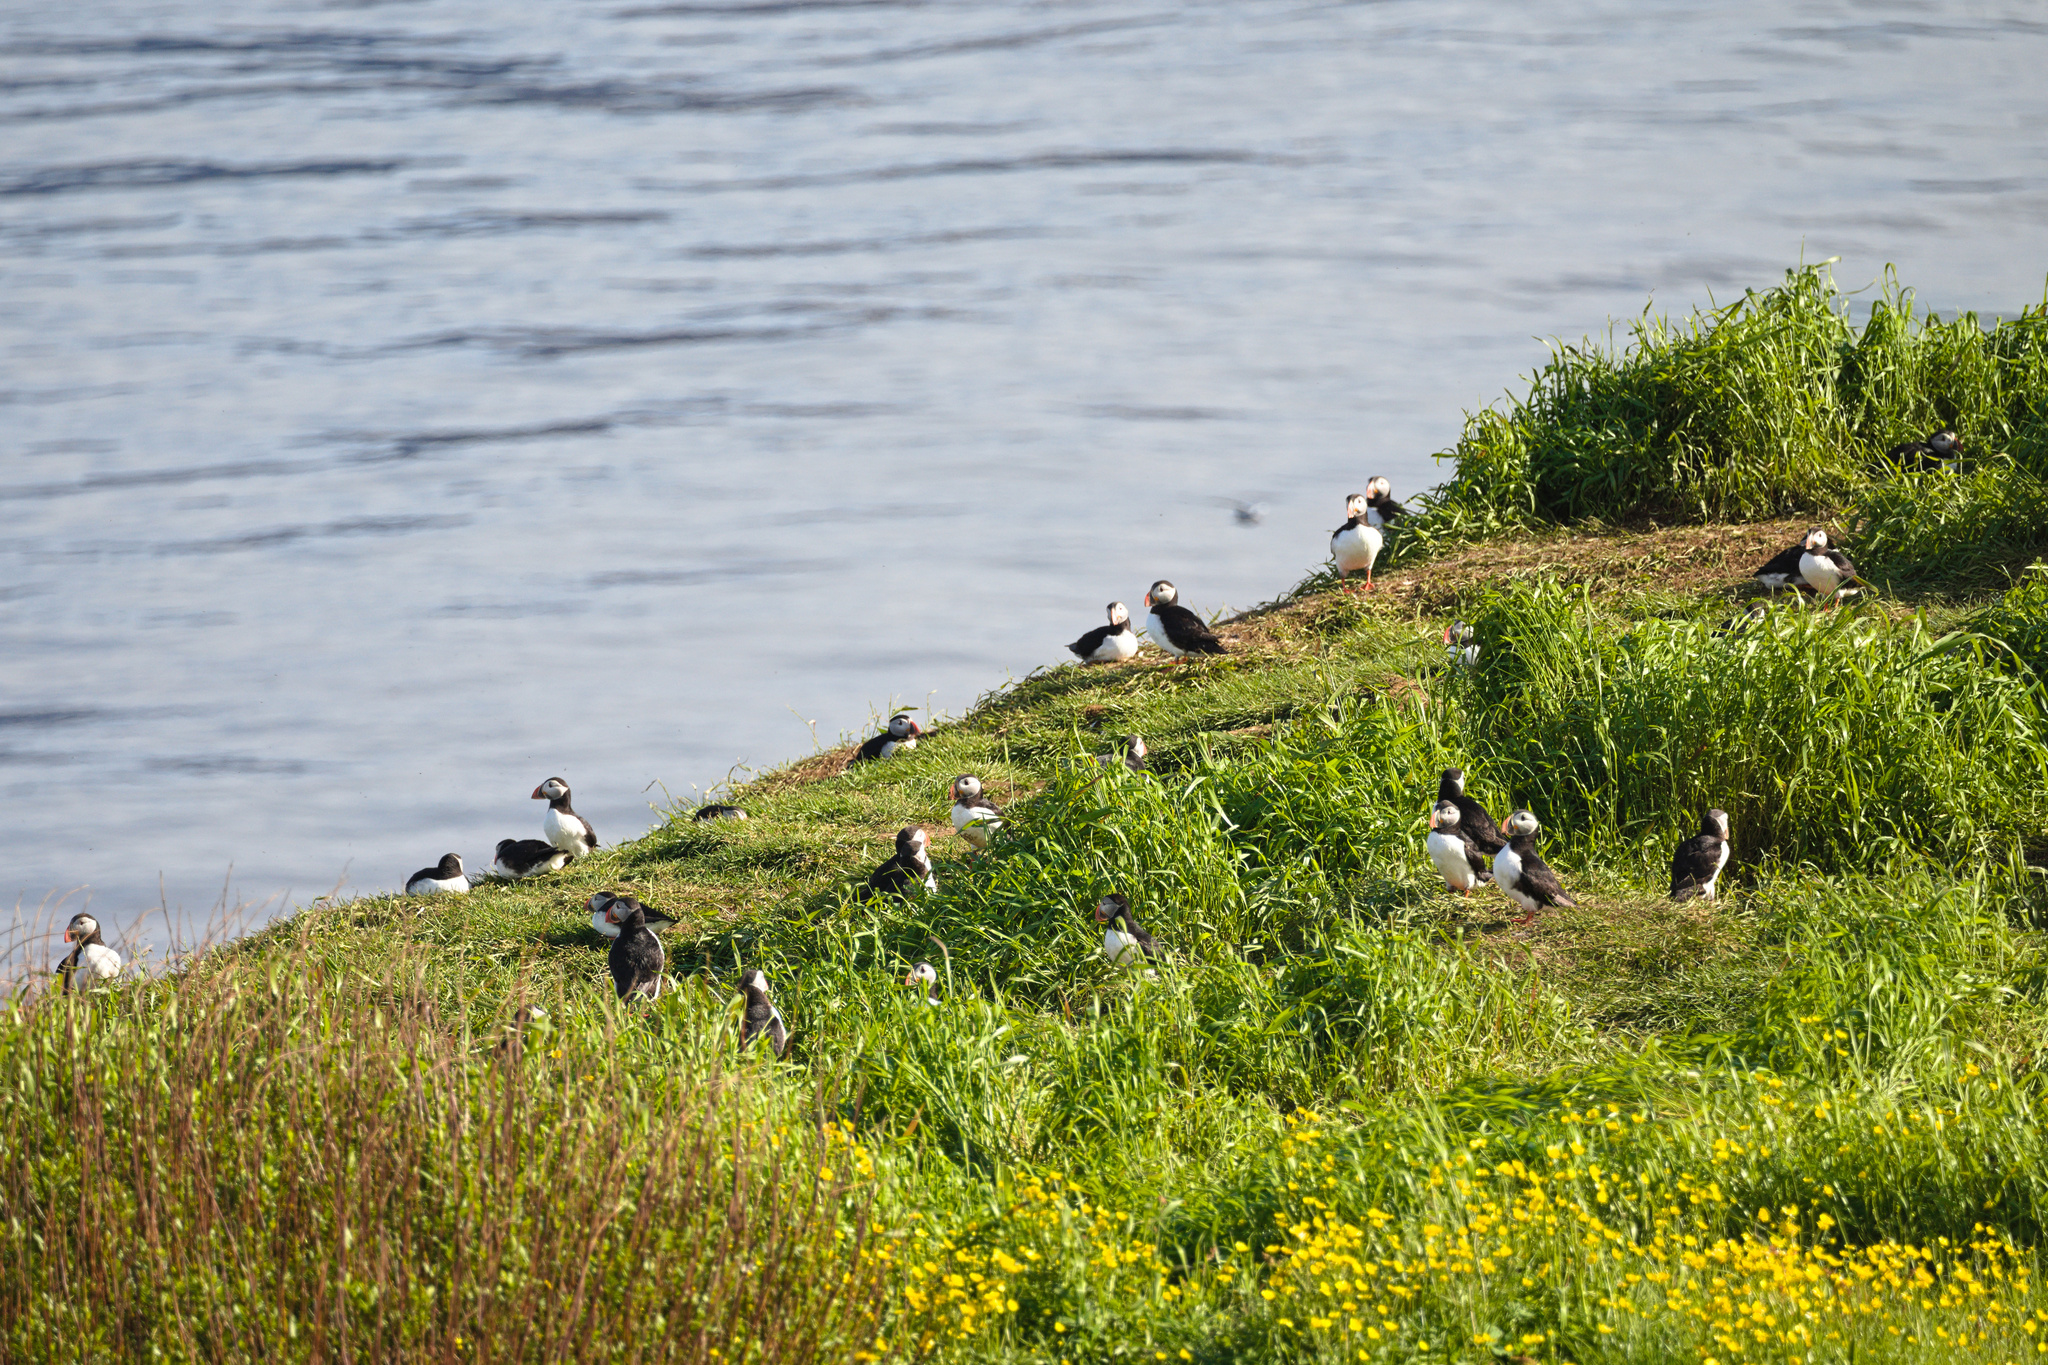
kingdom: Animalia
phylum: Chordata
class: Aves
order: Charadriiformes
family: Alcidae
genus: Fratercula
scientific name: Fratercula arctica
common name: Atlantic puffin
